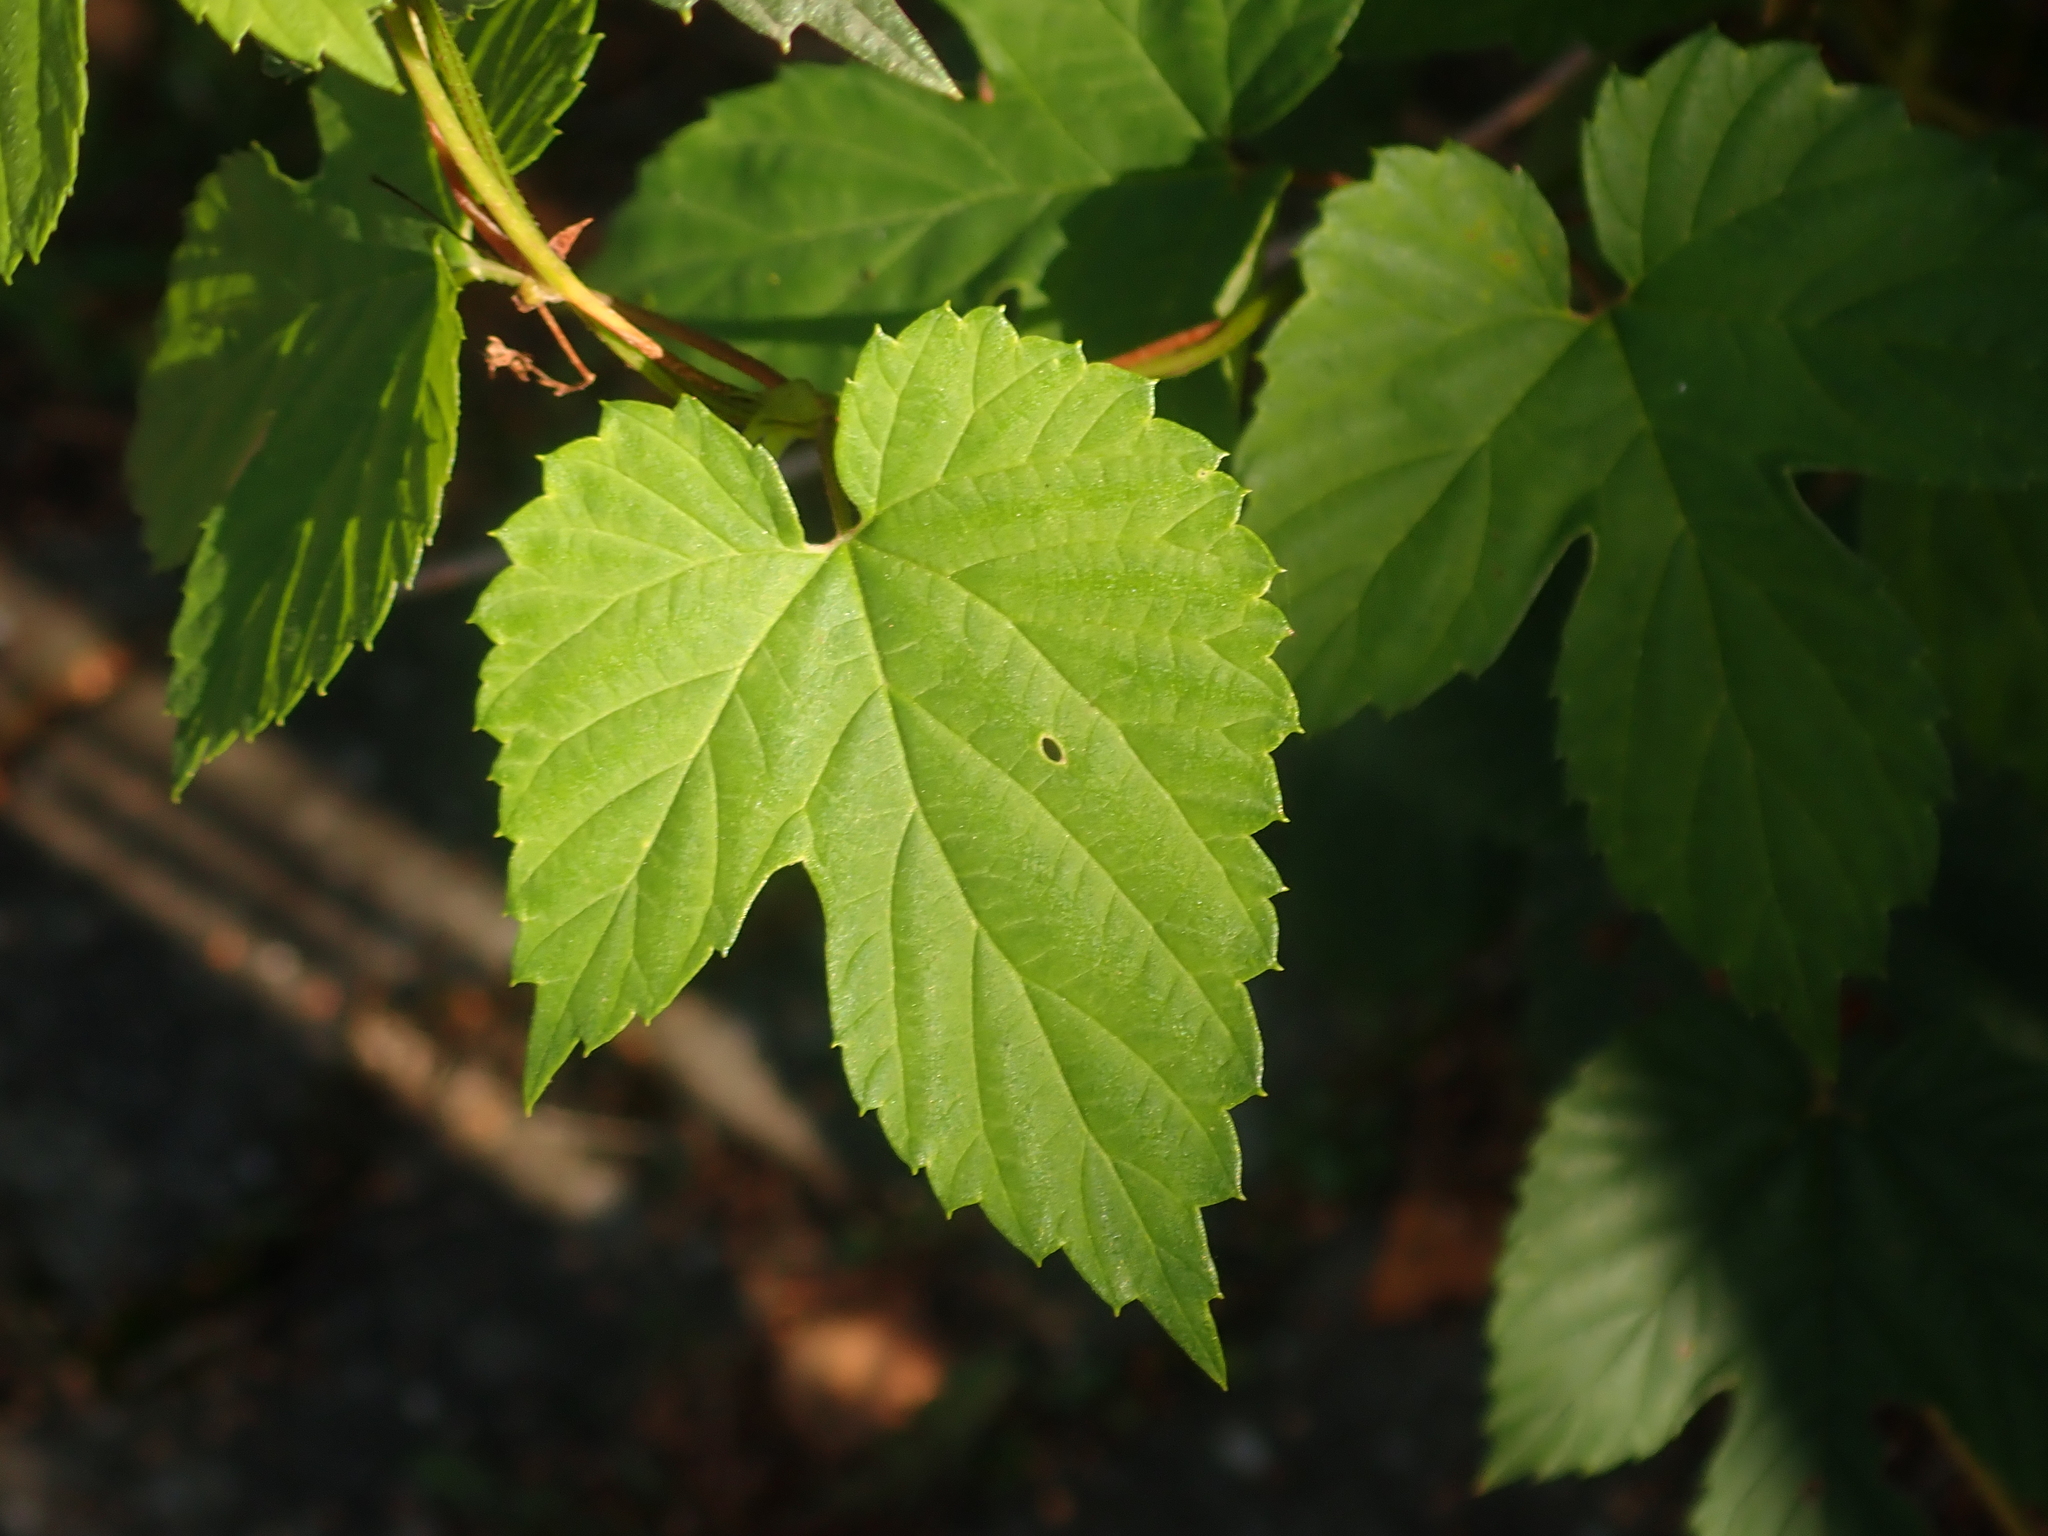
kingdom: Plantae
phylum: Tracheophyta
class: Magnoliopsida
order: Rosales
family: Cannabaceae
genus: Humulus
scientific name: Humulus lupulus
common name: Hop
